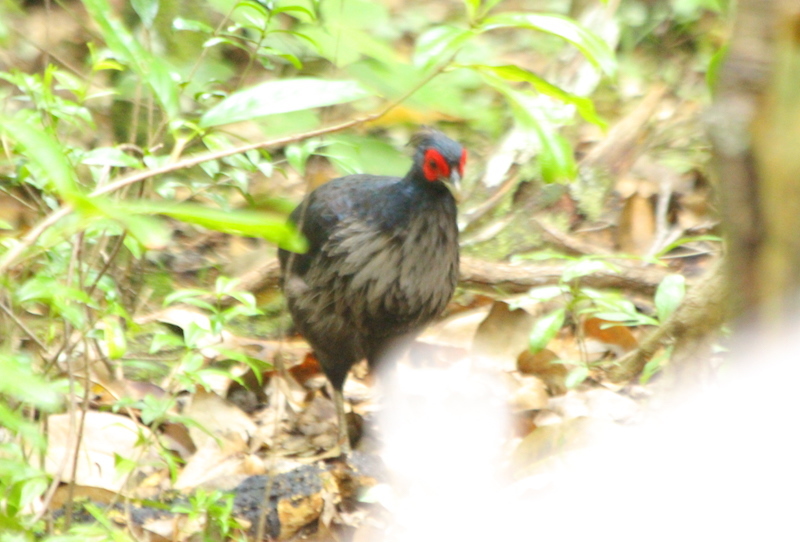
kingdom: Animalia
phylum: Chordata
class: Aves
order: Galliformes
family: Phasianidae
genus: Lophura
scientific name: Lophura leucomelanos
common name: Kalij pheasant
